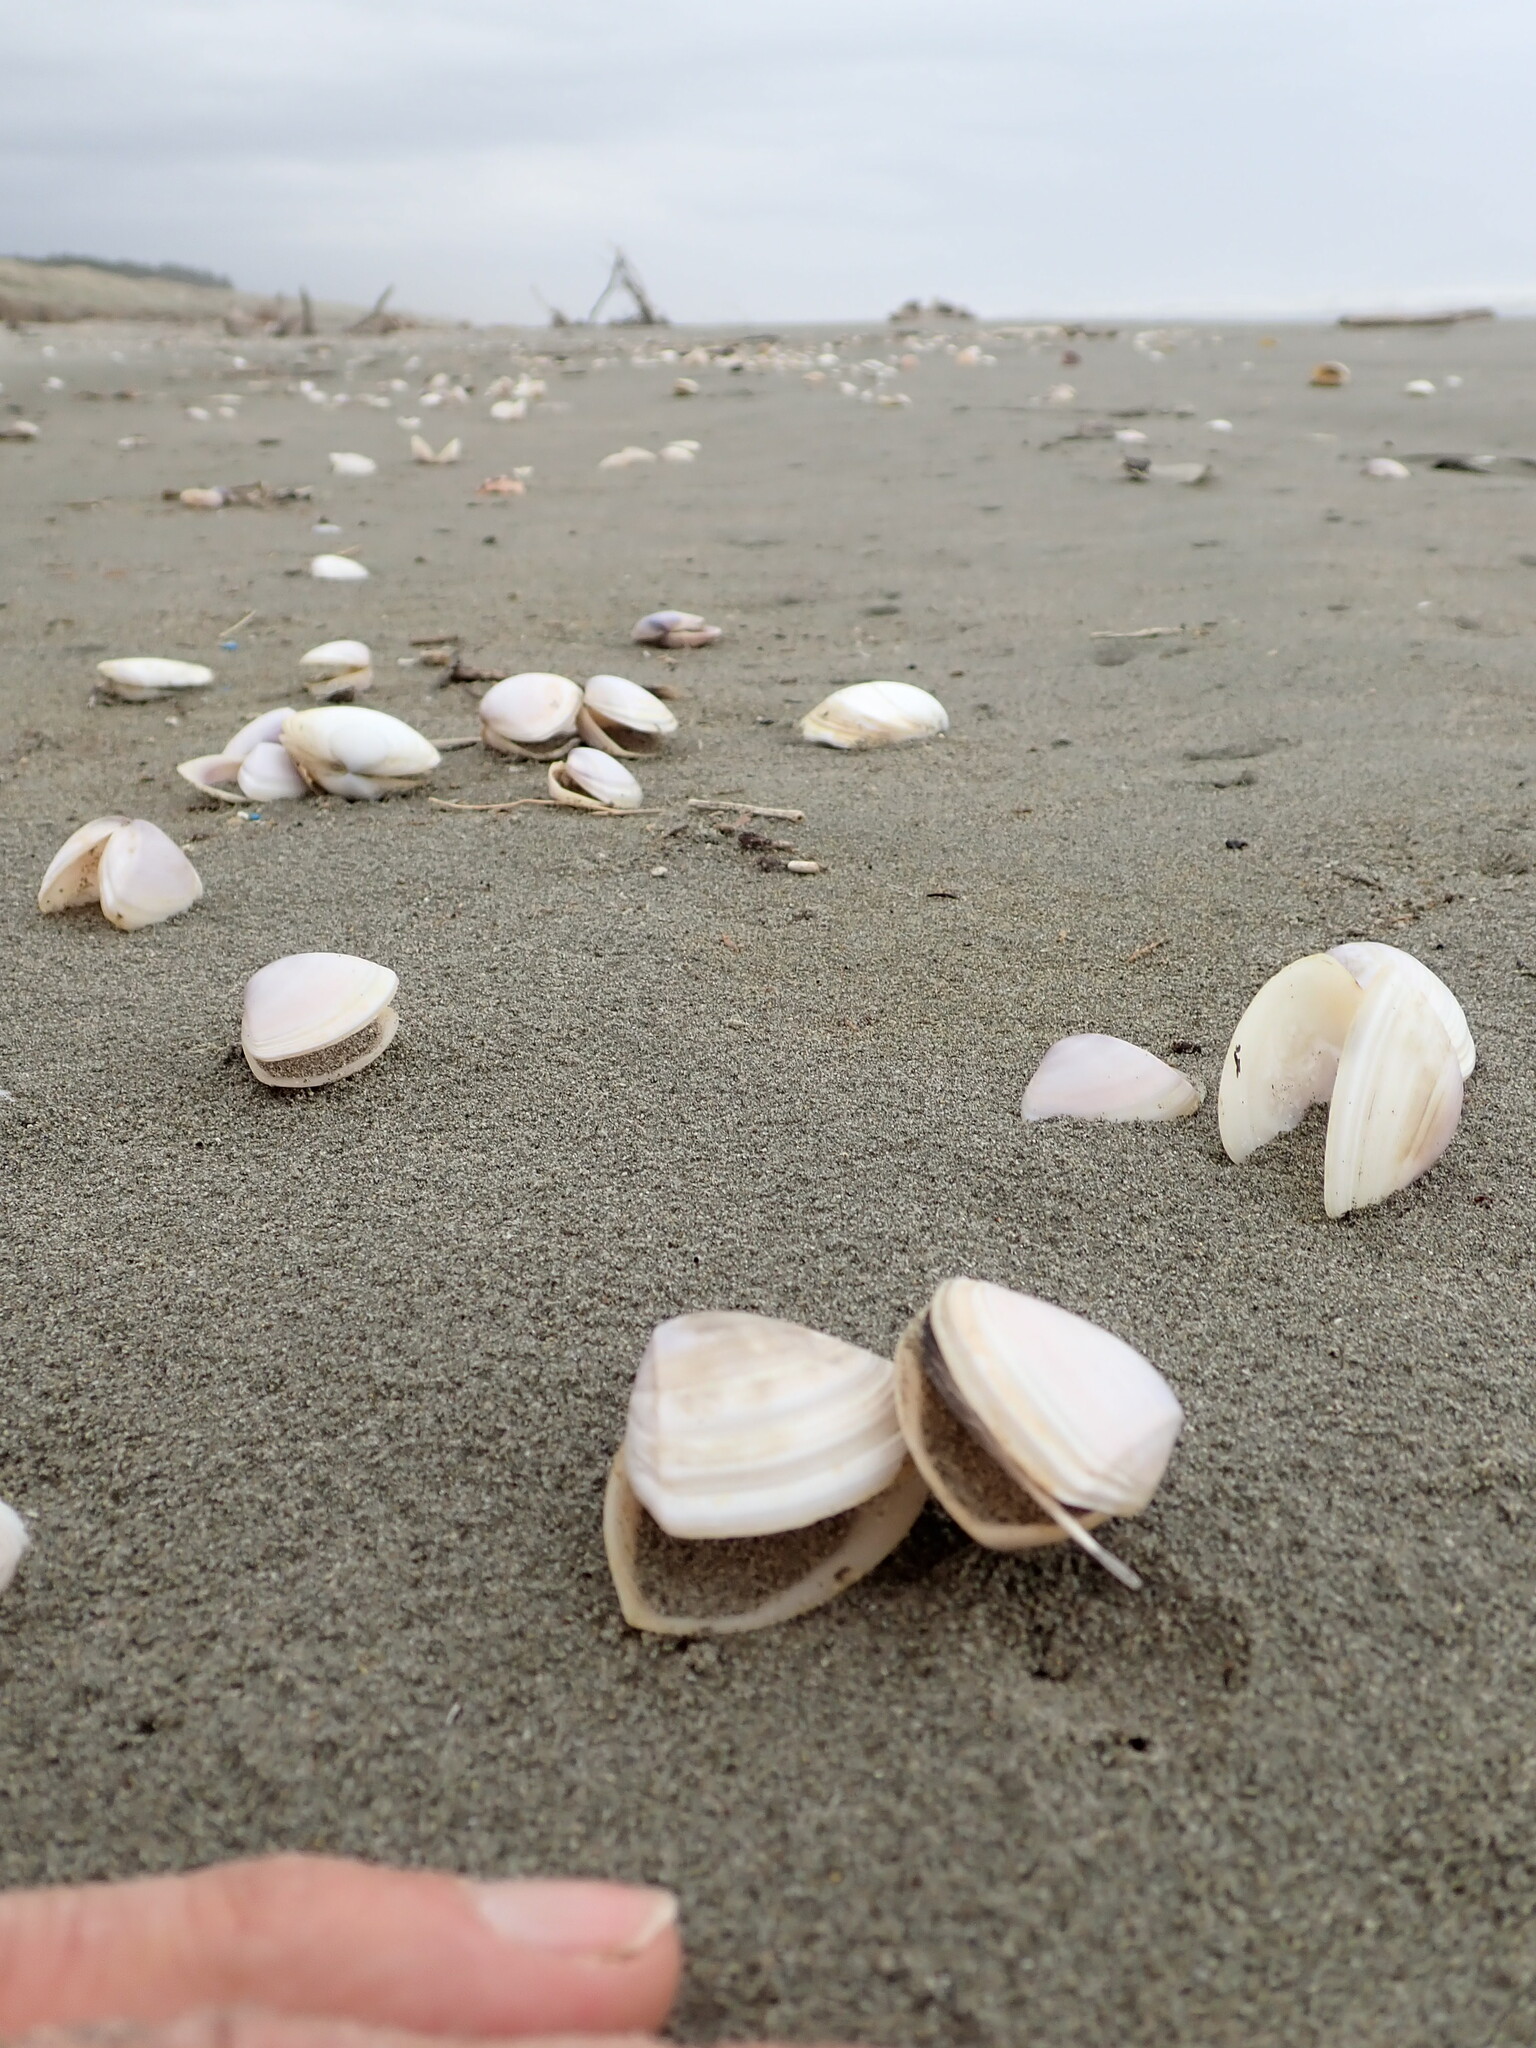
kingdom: Animalia
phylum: Mollusca
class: Bivalvia
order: Venerida
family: Mactridae
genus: Crassula
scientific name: Crassula aequilatera
